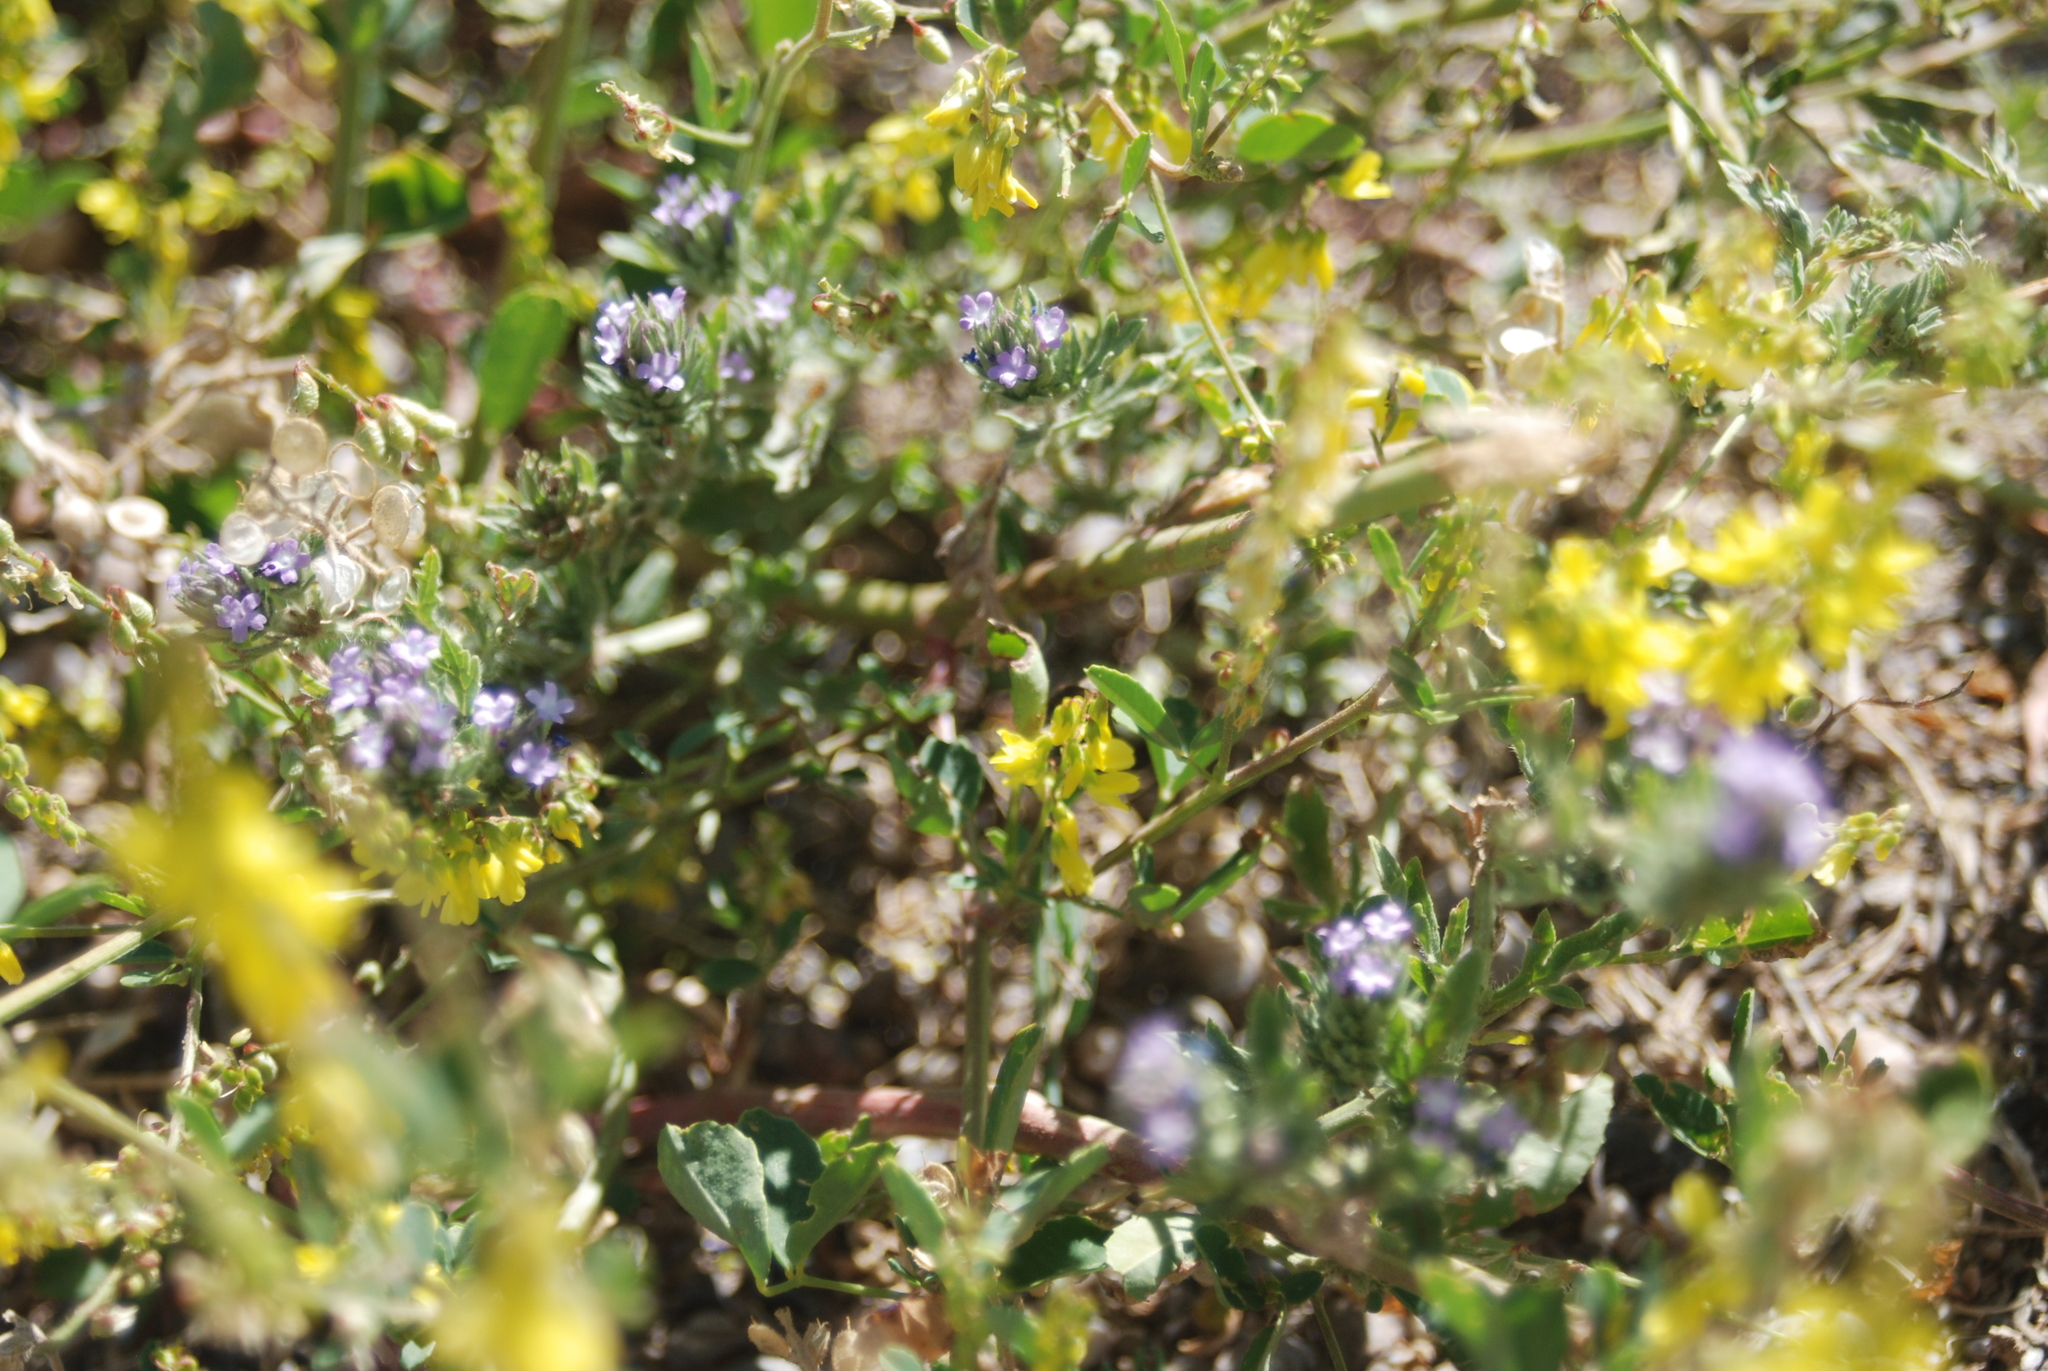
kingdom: Plantae
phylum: Tracheophyta
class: Magnoliopsida
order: Lamiales
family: Verbenaceae
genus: Verbena
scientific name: Verbena bracteata
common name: Bracted vervain
